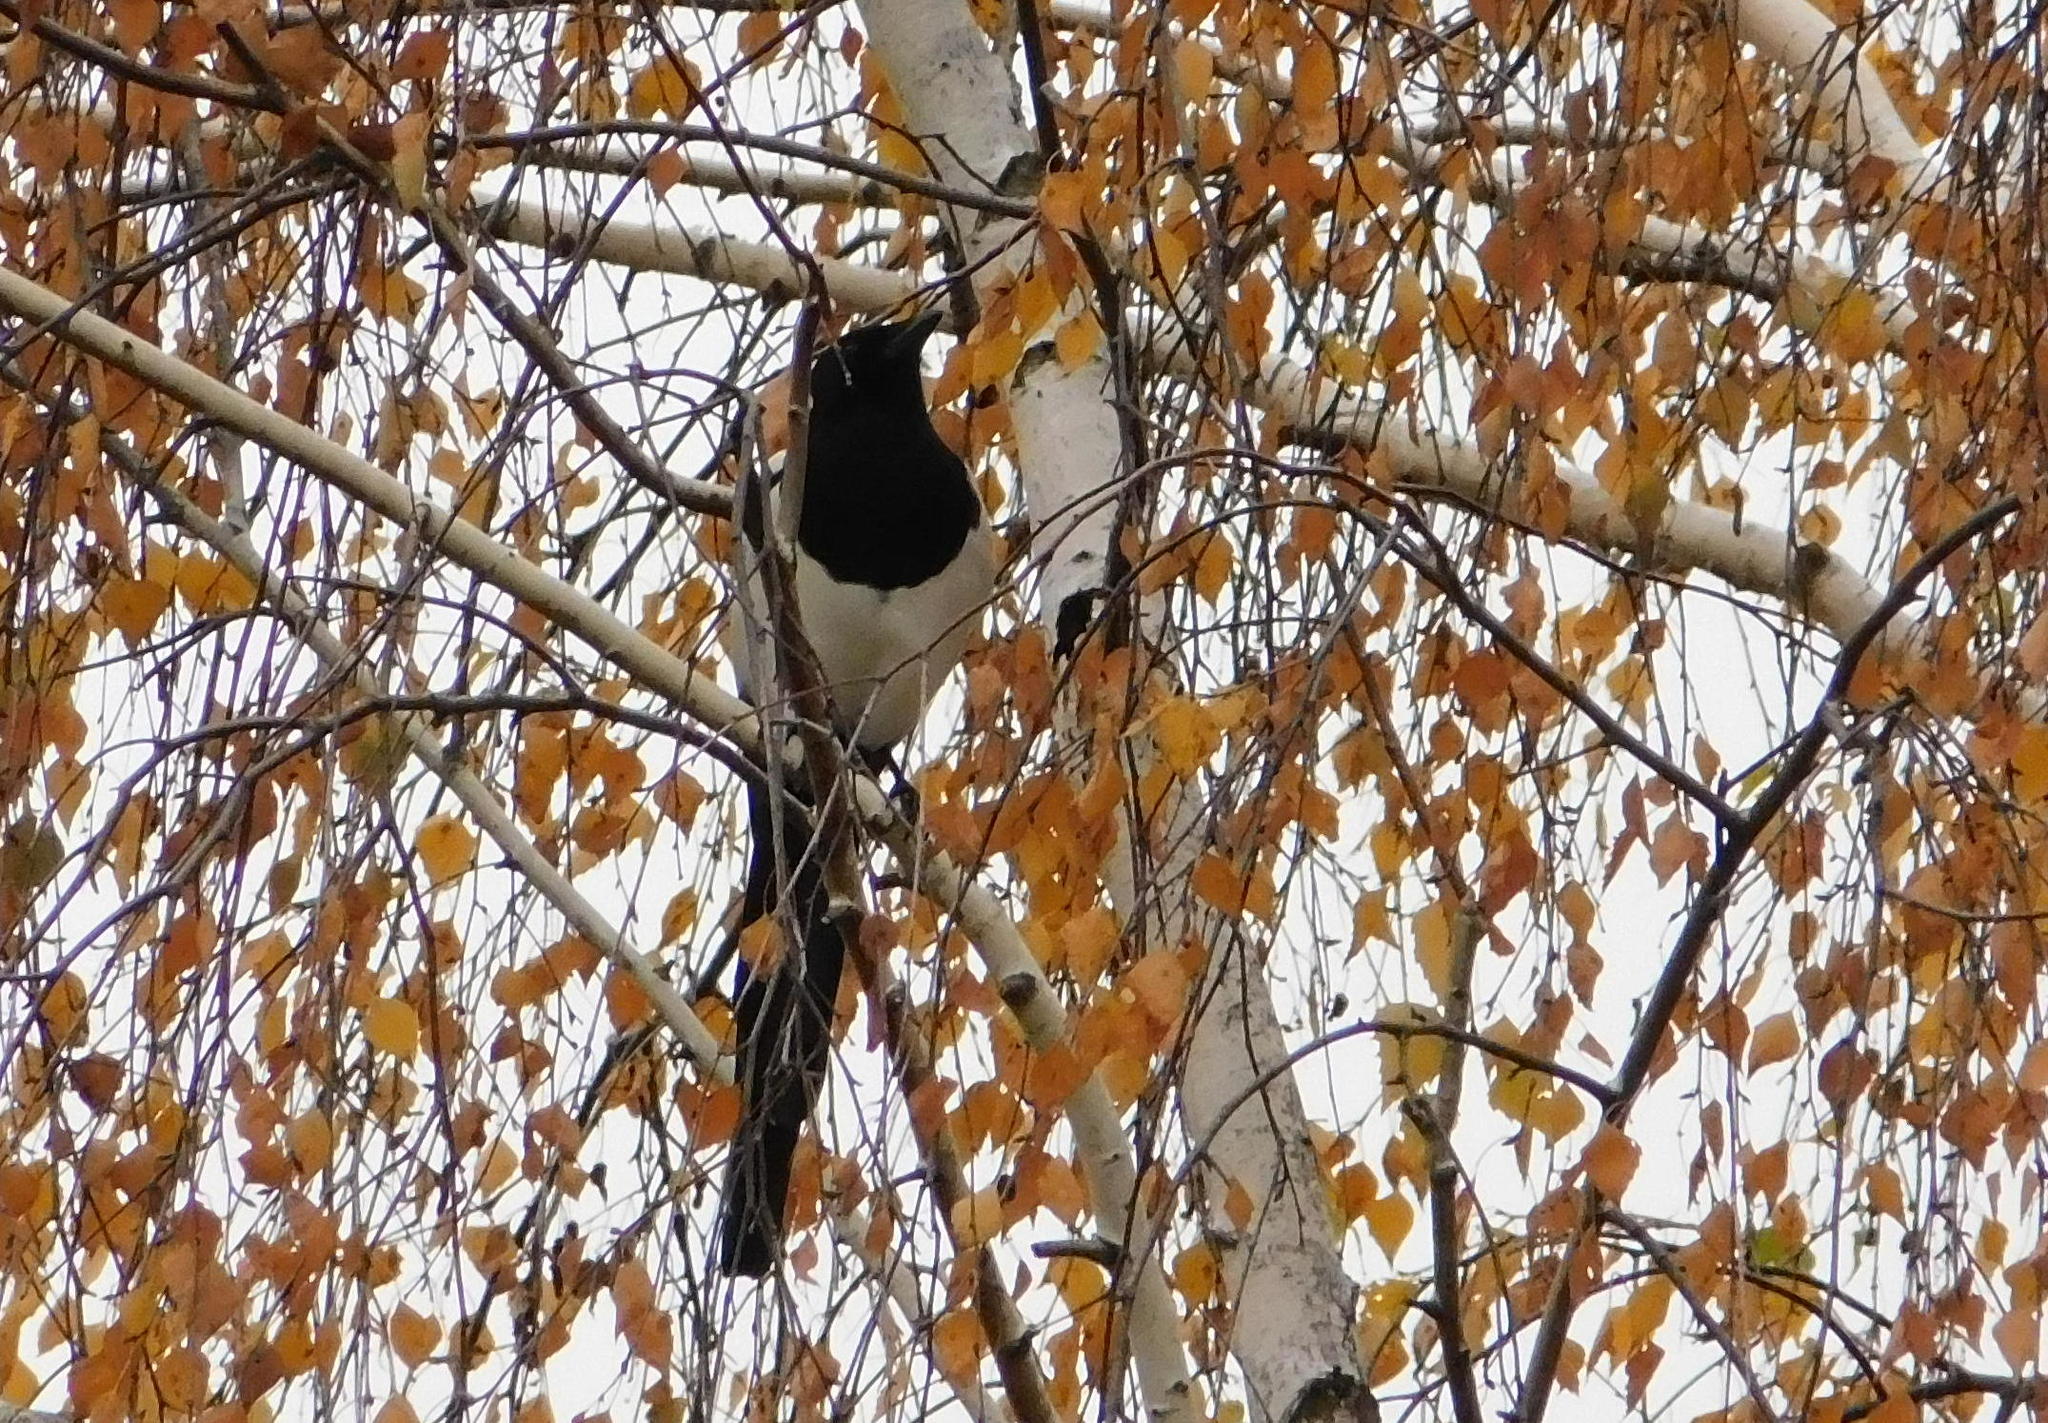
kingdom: Animalia
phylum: Chordata
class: Aves
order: Passeriformes
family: Corvidae
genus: Pica
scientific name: Pica pica
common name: Eurasian magpie
